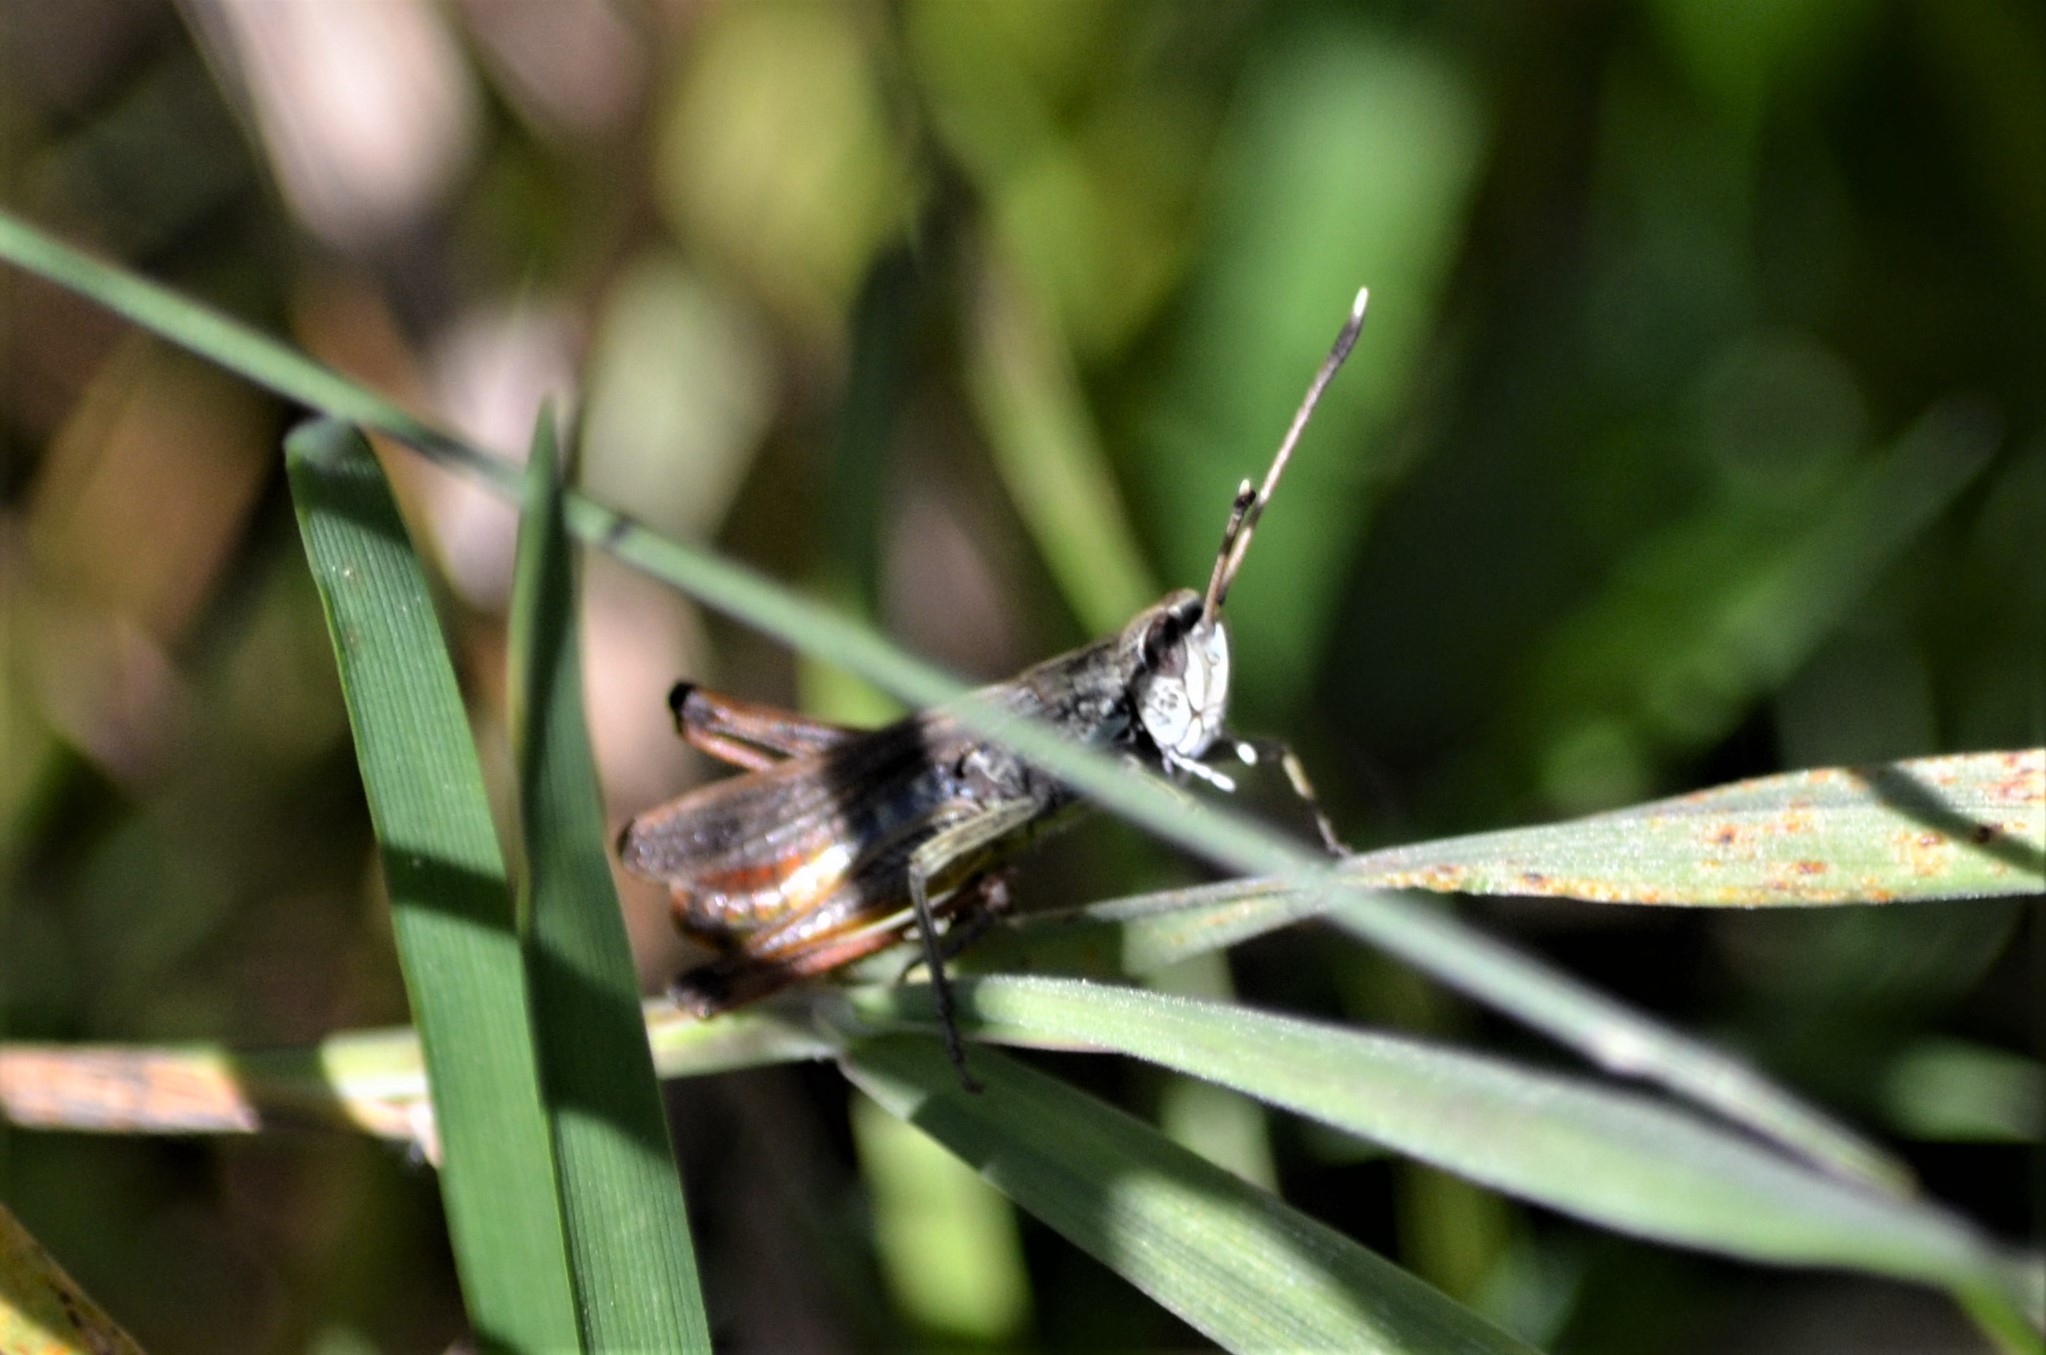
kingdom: Animalia
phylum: Arthropoda
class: Insecta
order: Orthoptera
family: Acrididae
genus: Gomphocerippus
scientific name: Gomphocerippus rufus
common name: Rufous grasshopper
